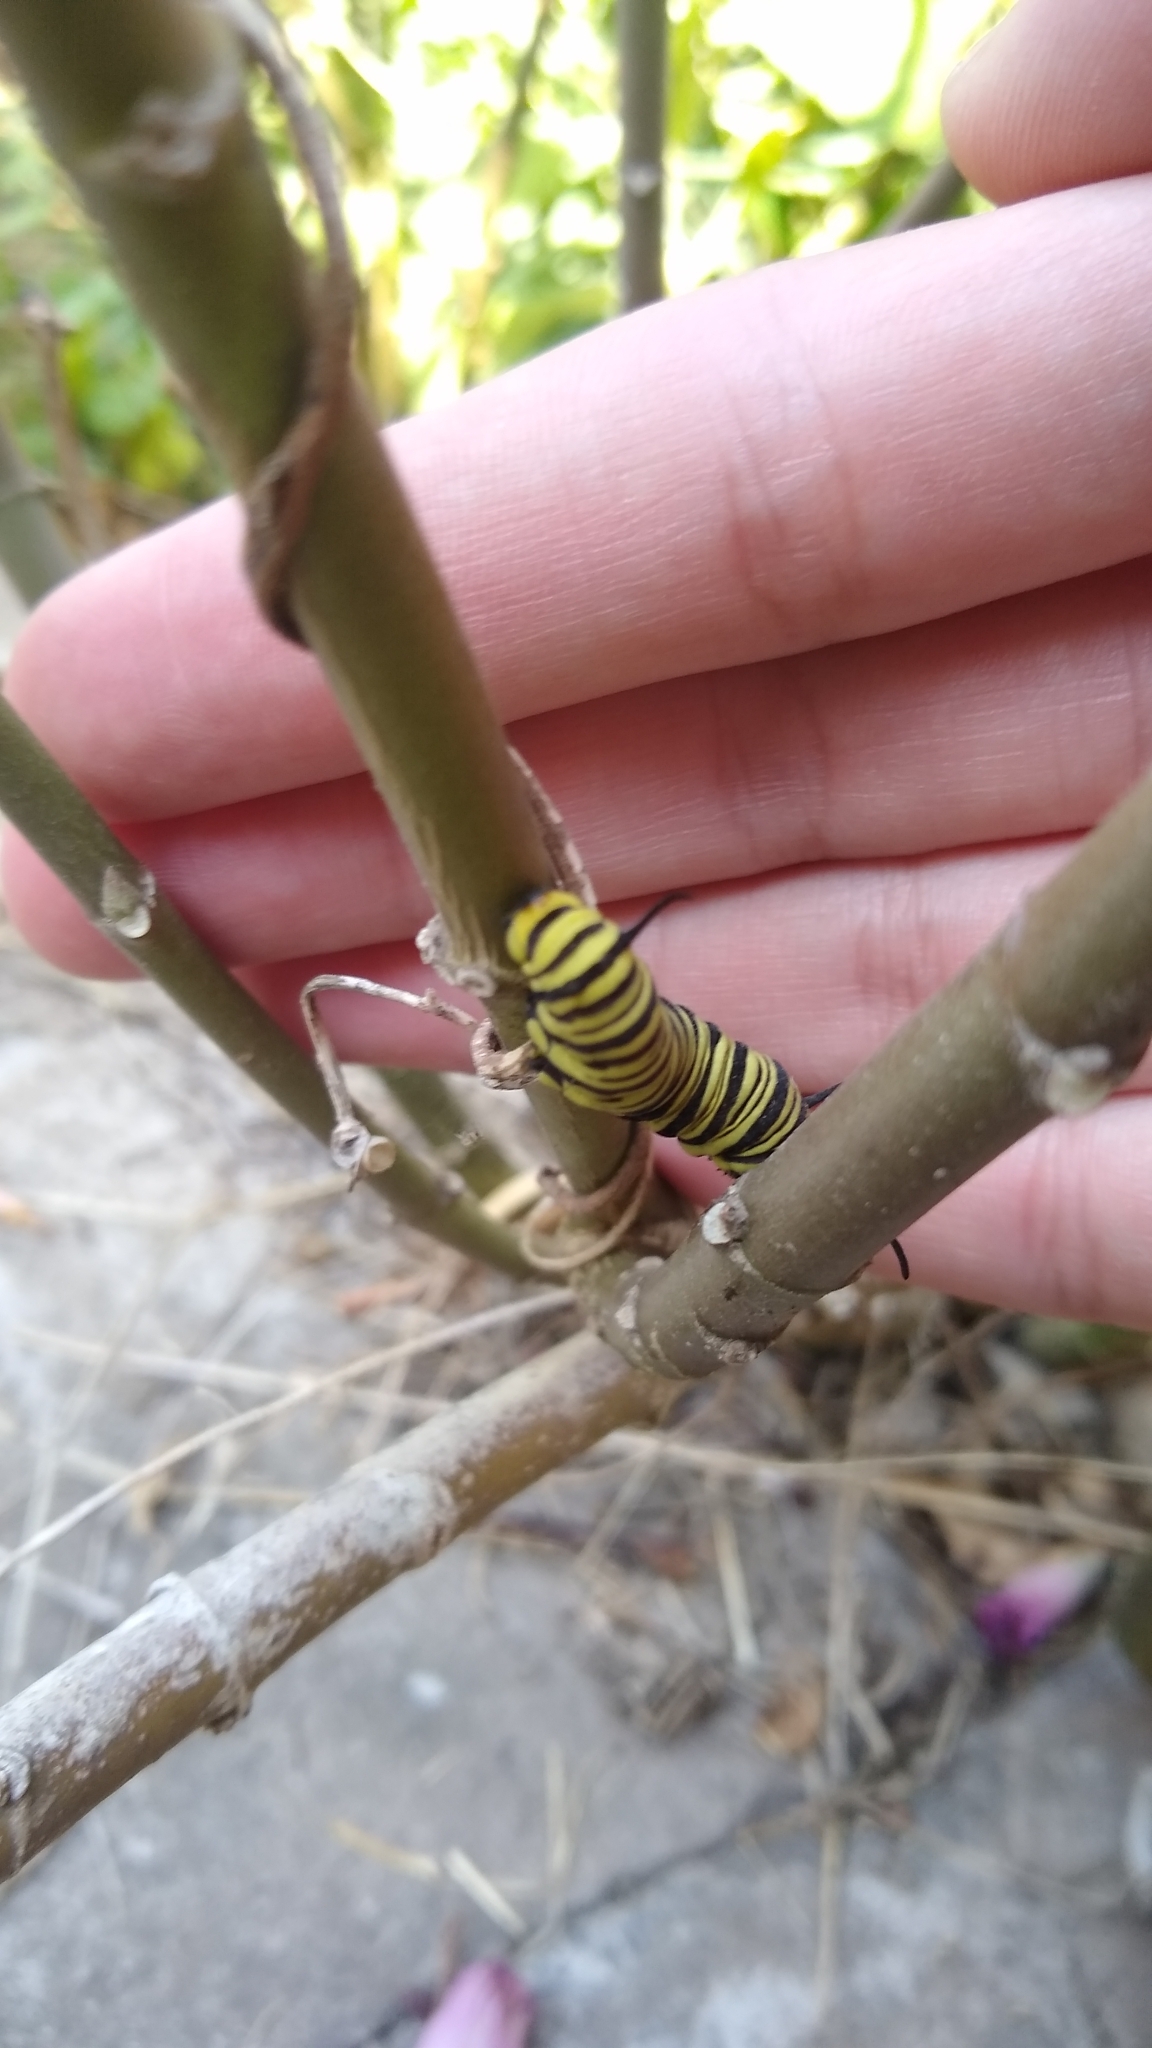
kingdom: Animalia
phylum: Arthropoda
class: Insecta
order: Lepidoptera
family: Nymphalidae
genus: Danaus
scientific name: Danaus erippus
